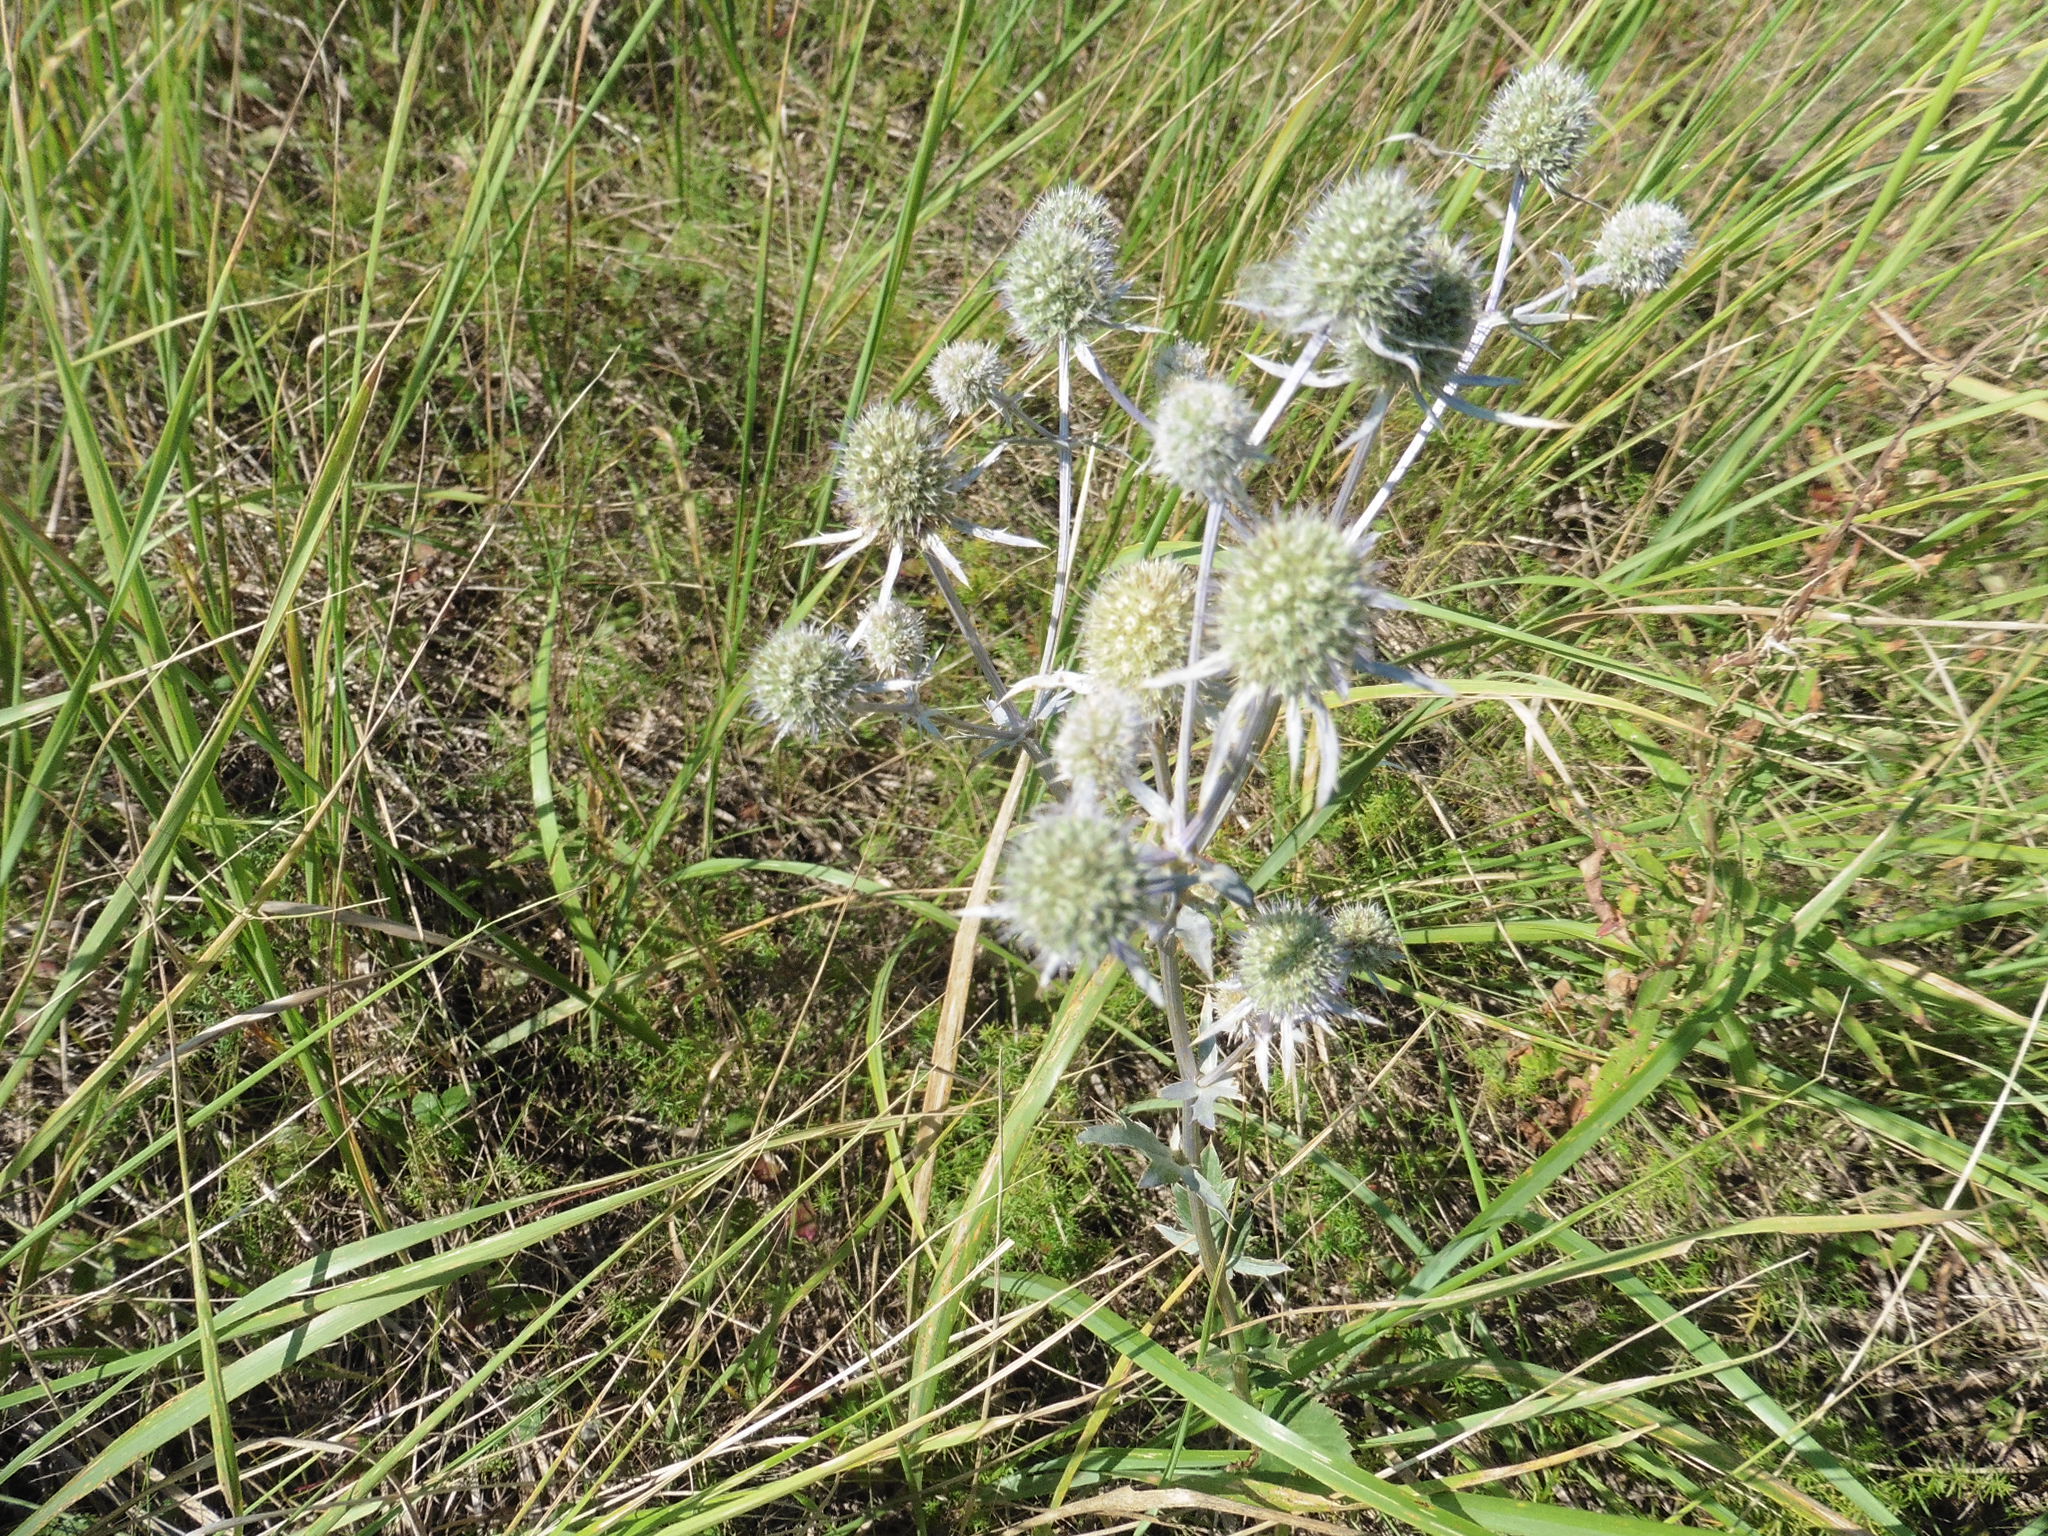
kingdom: Plantae
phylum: Tracheophyta
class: Magnoliopsida
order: Apiales
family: Apiaceae
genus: Eryngium
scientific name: Eryngium planum
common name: Blue eryngo
